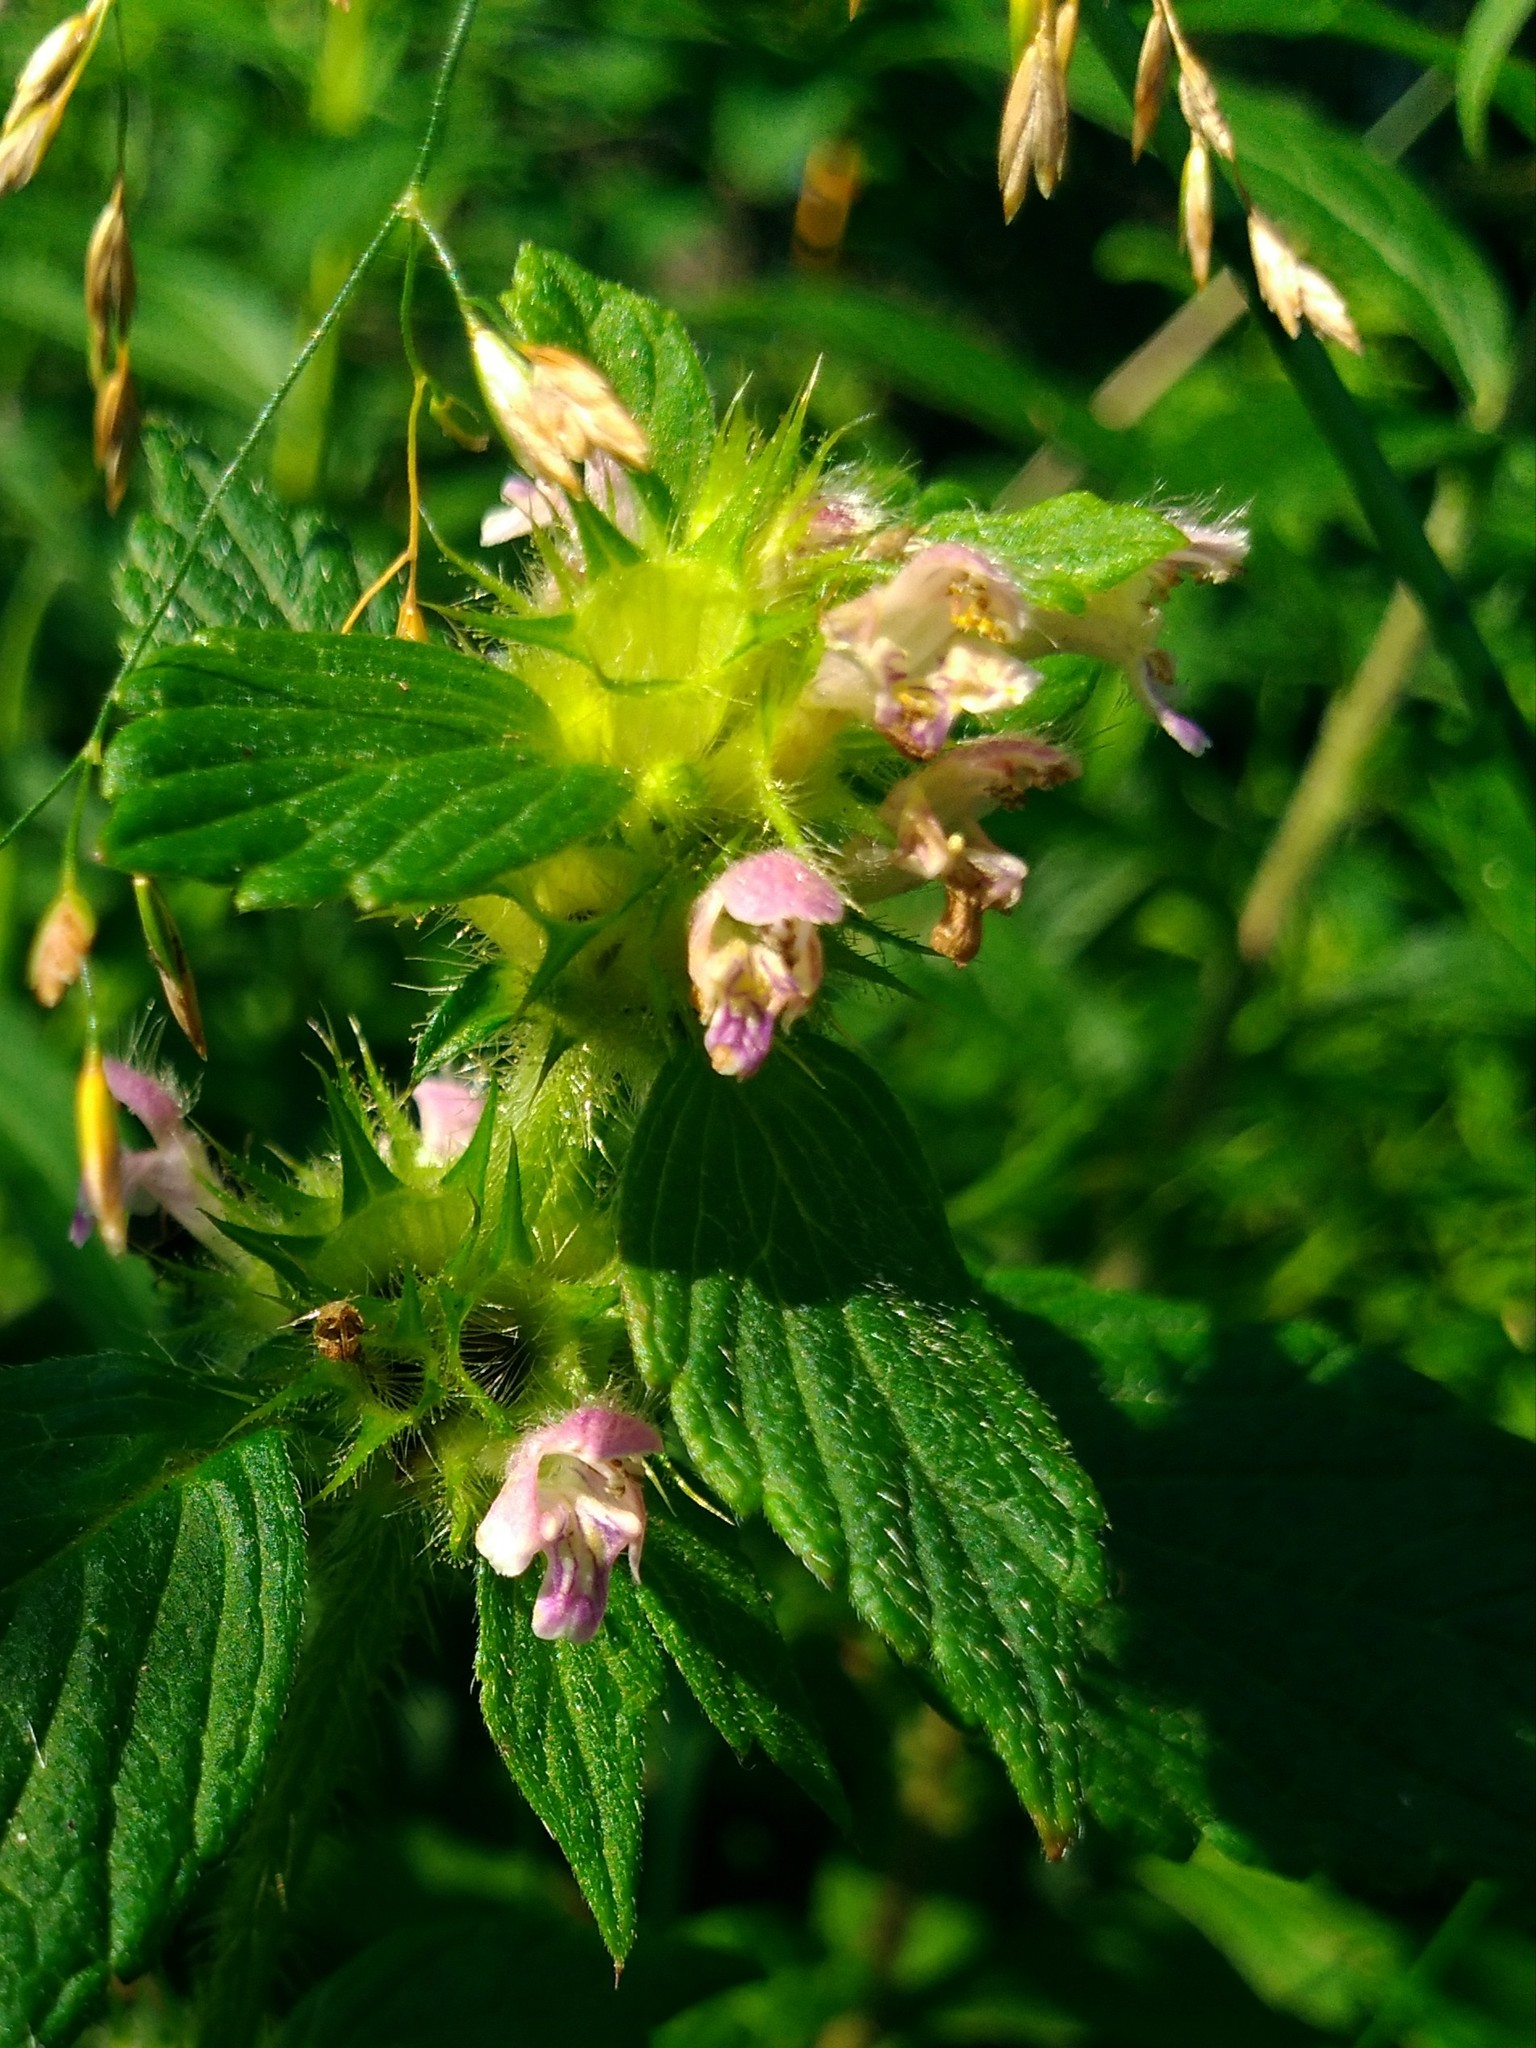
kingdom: Plantae
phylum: Tracheophyta
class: Magnoliopsida
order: Lamiales
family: Lamiaceae
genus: Galeopsis
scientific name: Galeopsis bifida
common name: Bifid hemp-nettle
